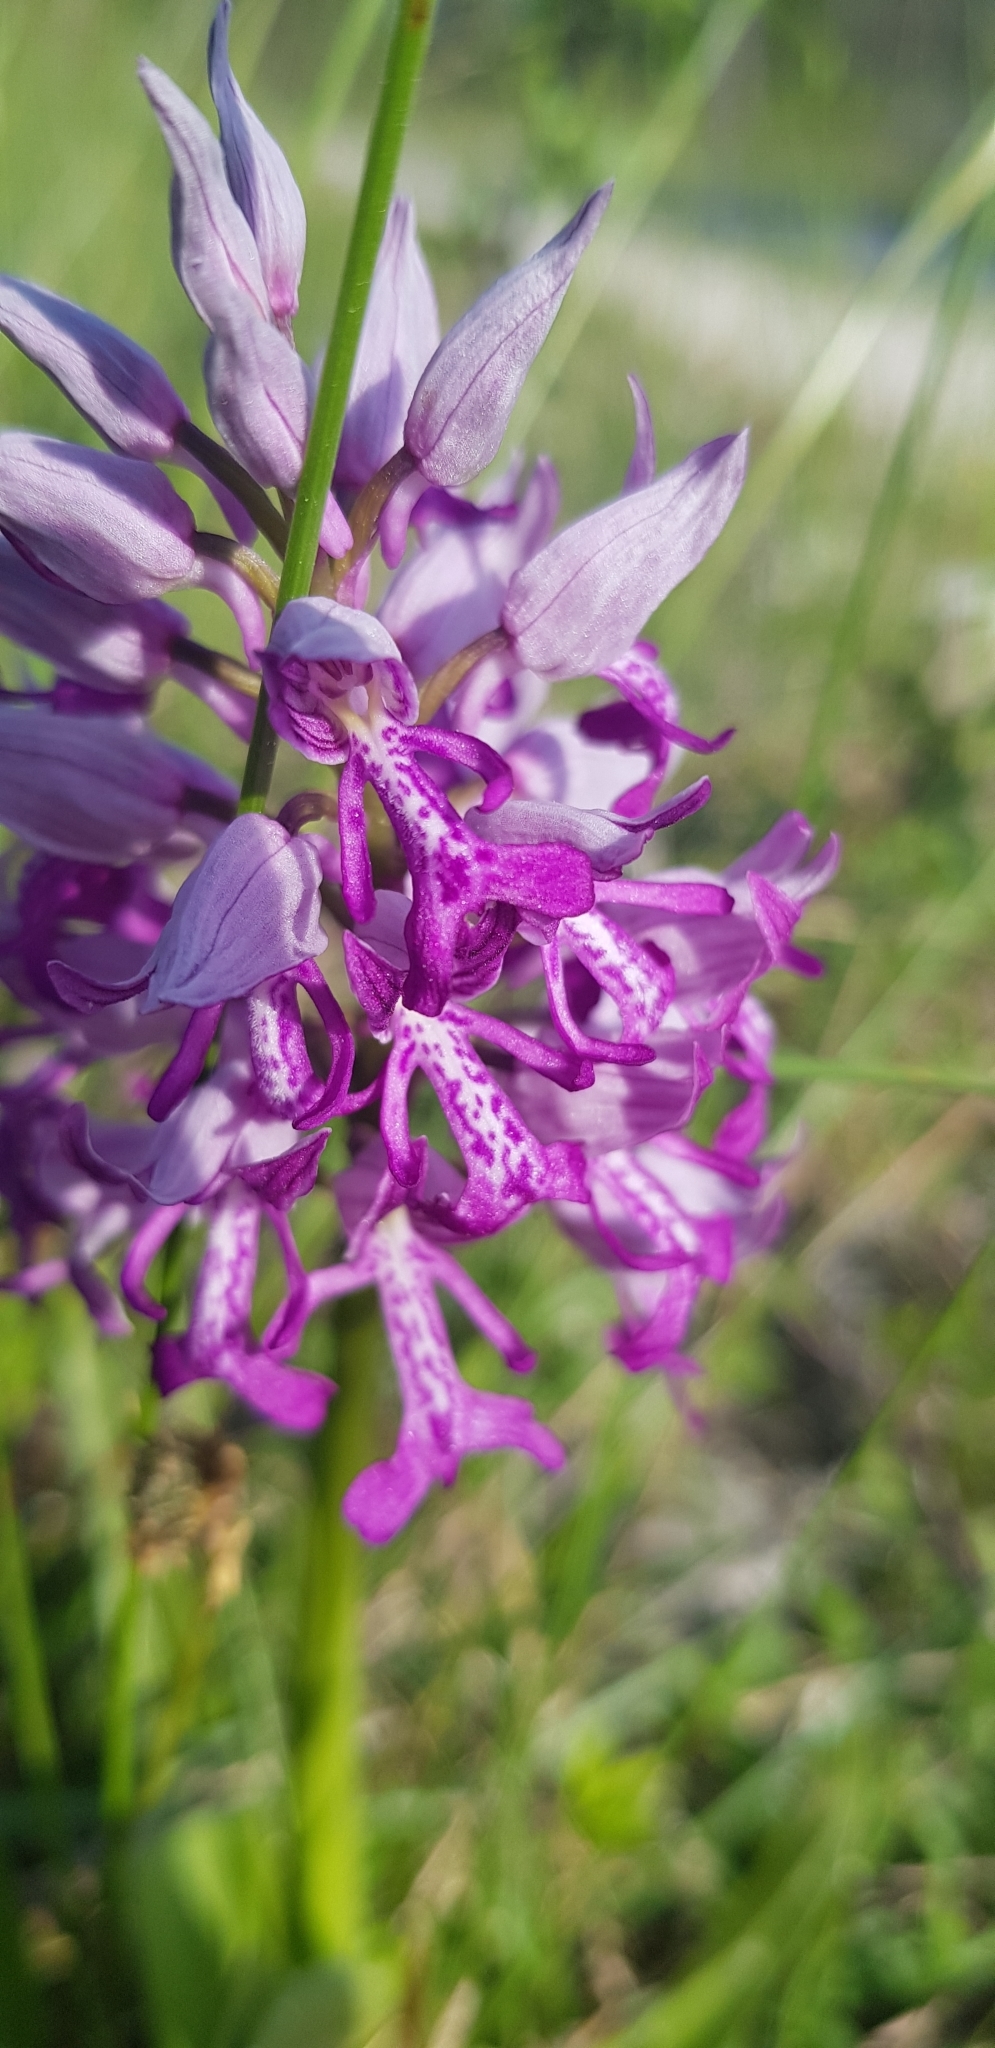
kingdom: Plantae
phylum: Tracheophyta
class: Liliopsida
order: Asparagales
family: Orchidaceae
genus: Orchis
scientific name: Orchis militaris
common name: Military orchid
